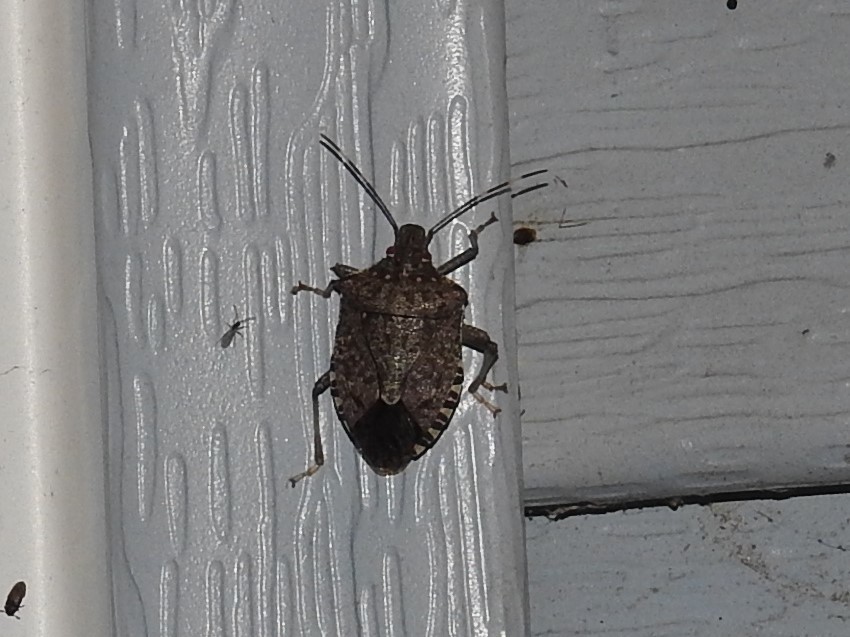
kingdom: Animalia
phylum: Arthropoda
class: Insecta
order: Hemiptera
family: Pentatomidae
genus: Halyomorpha
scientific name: Halyomorpha halys
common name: Brown marmorated stink bug
